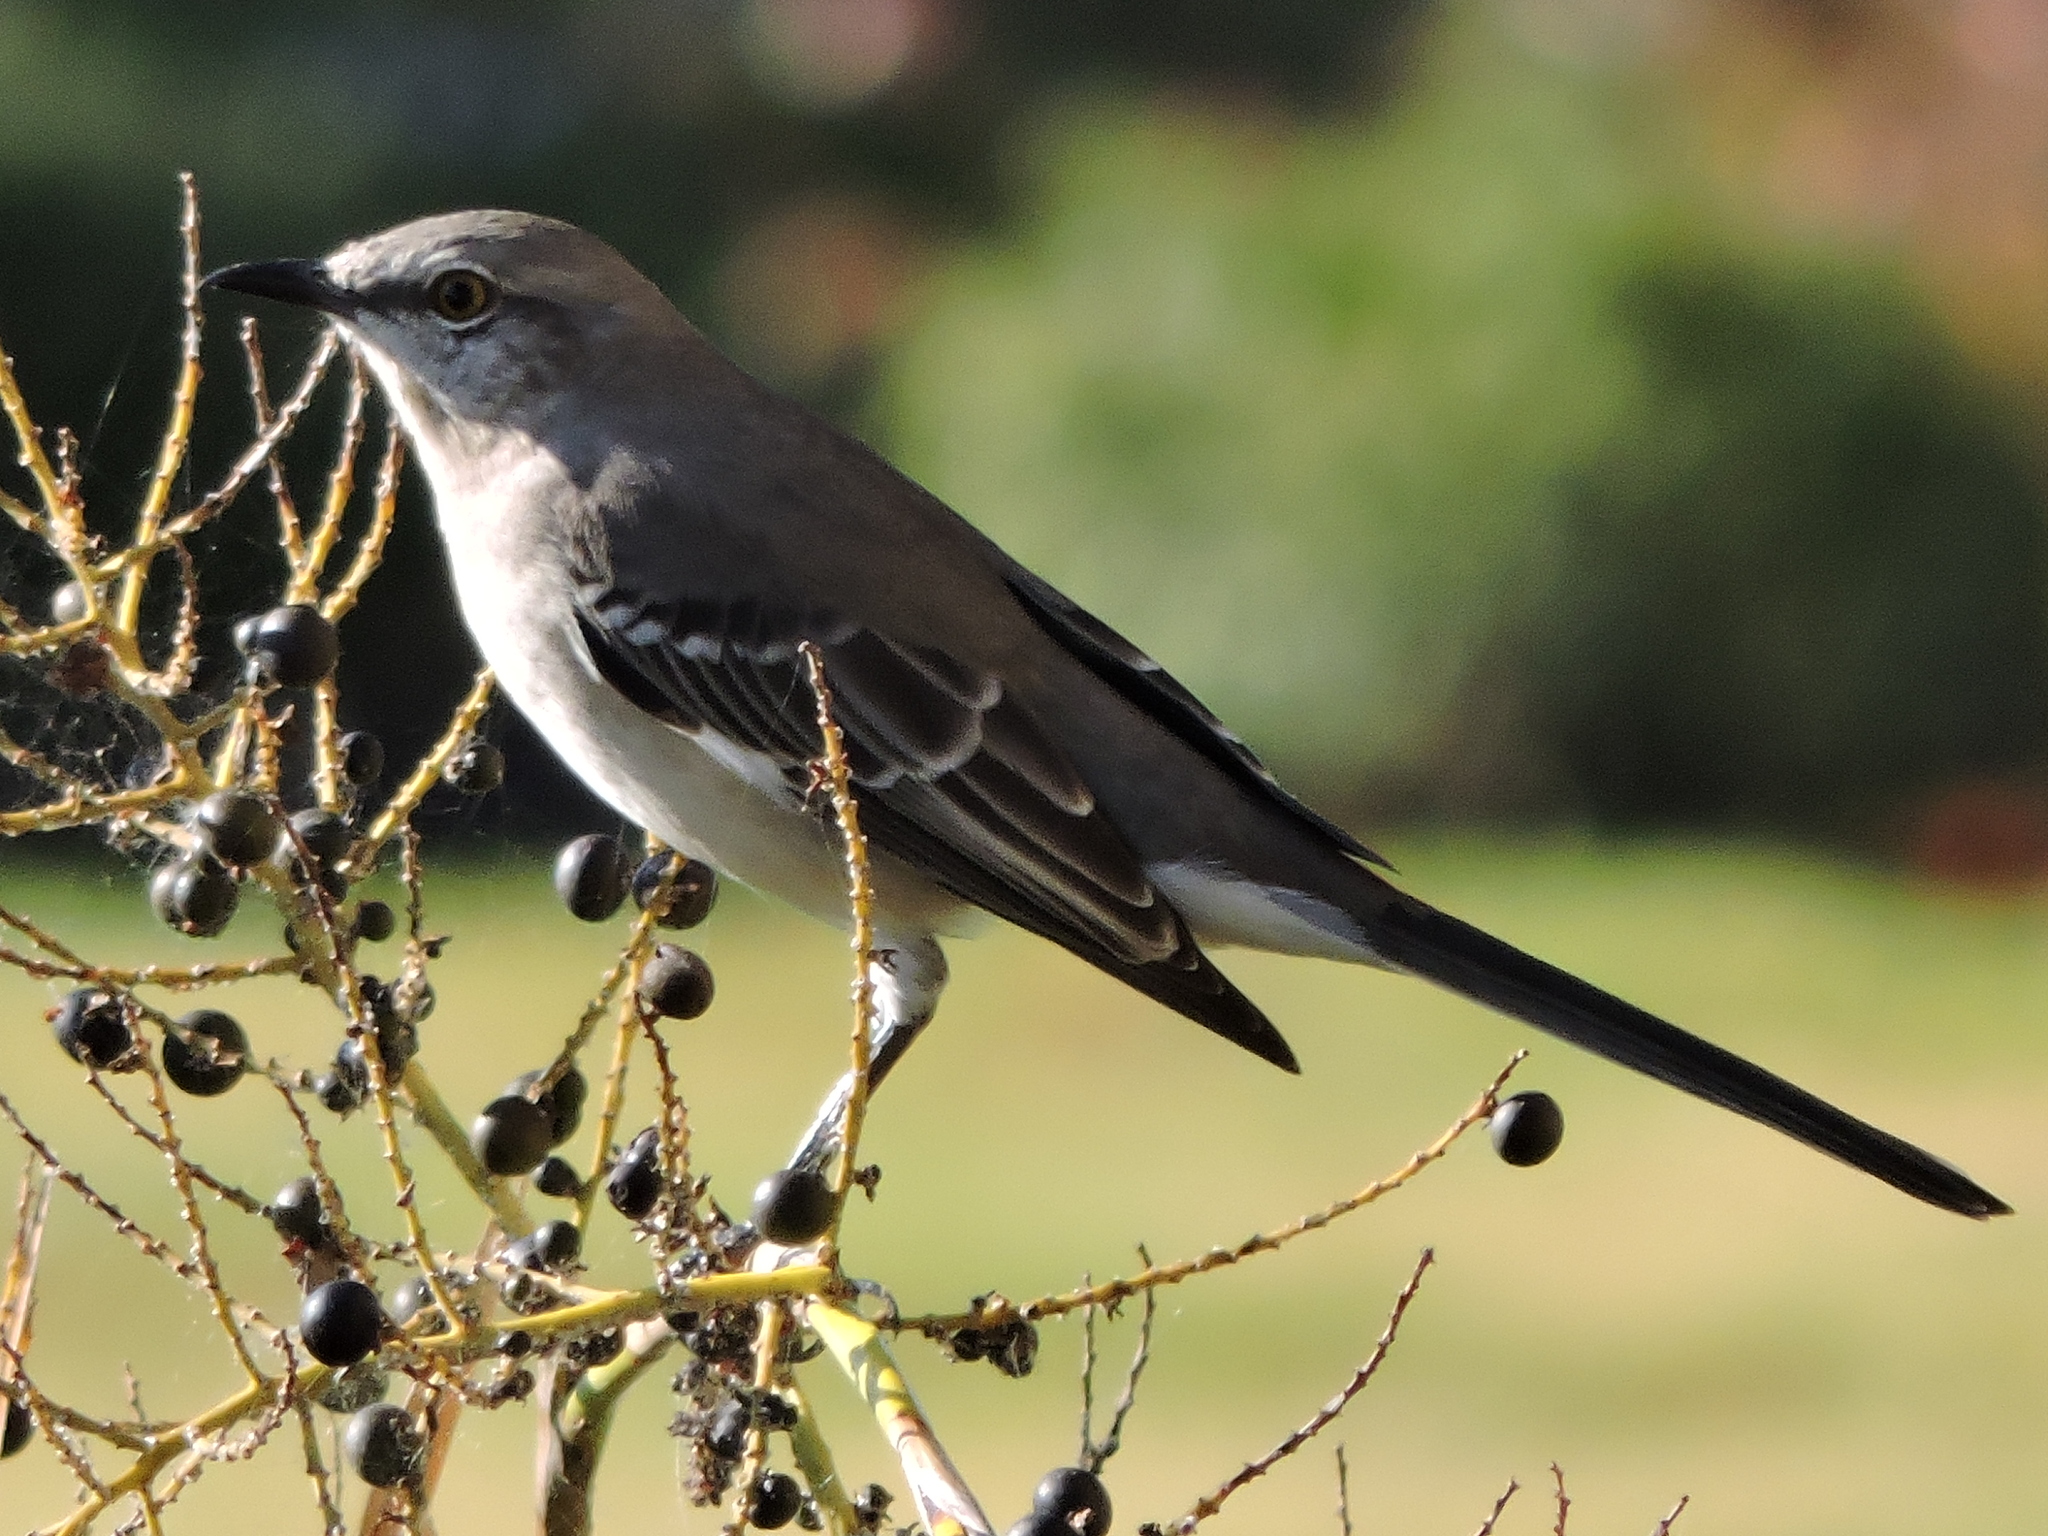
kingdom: Animalia
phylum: Chordata
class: Aves
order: Passeriformes
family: Mimidae
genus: Mimus
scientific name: Mimus polyglottos
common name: Northern mockingbird
